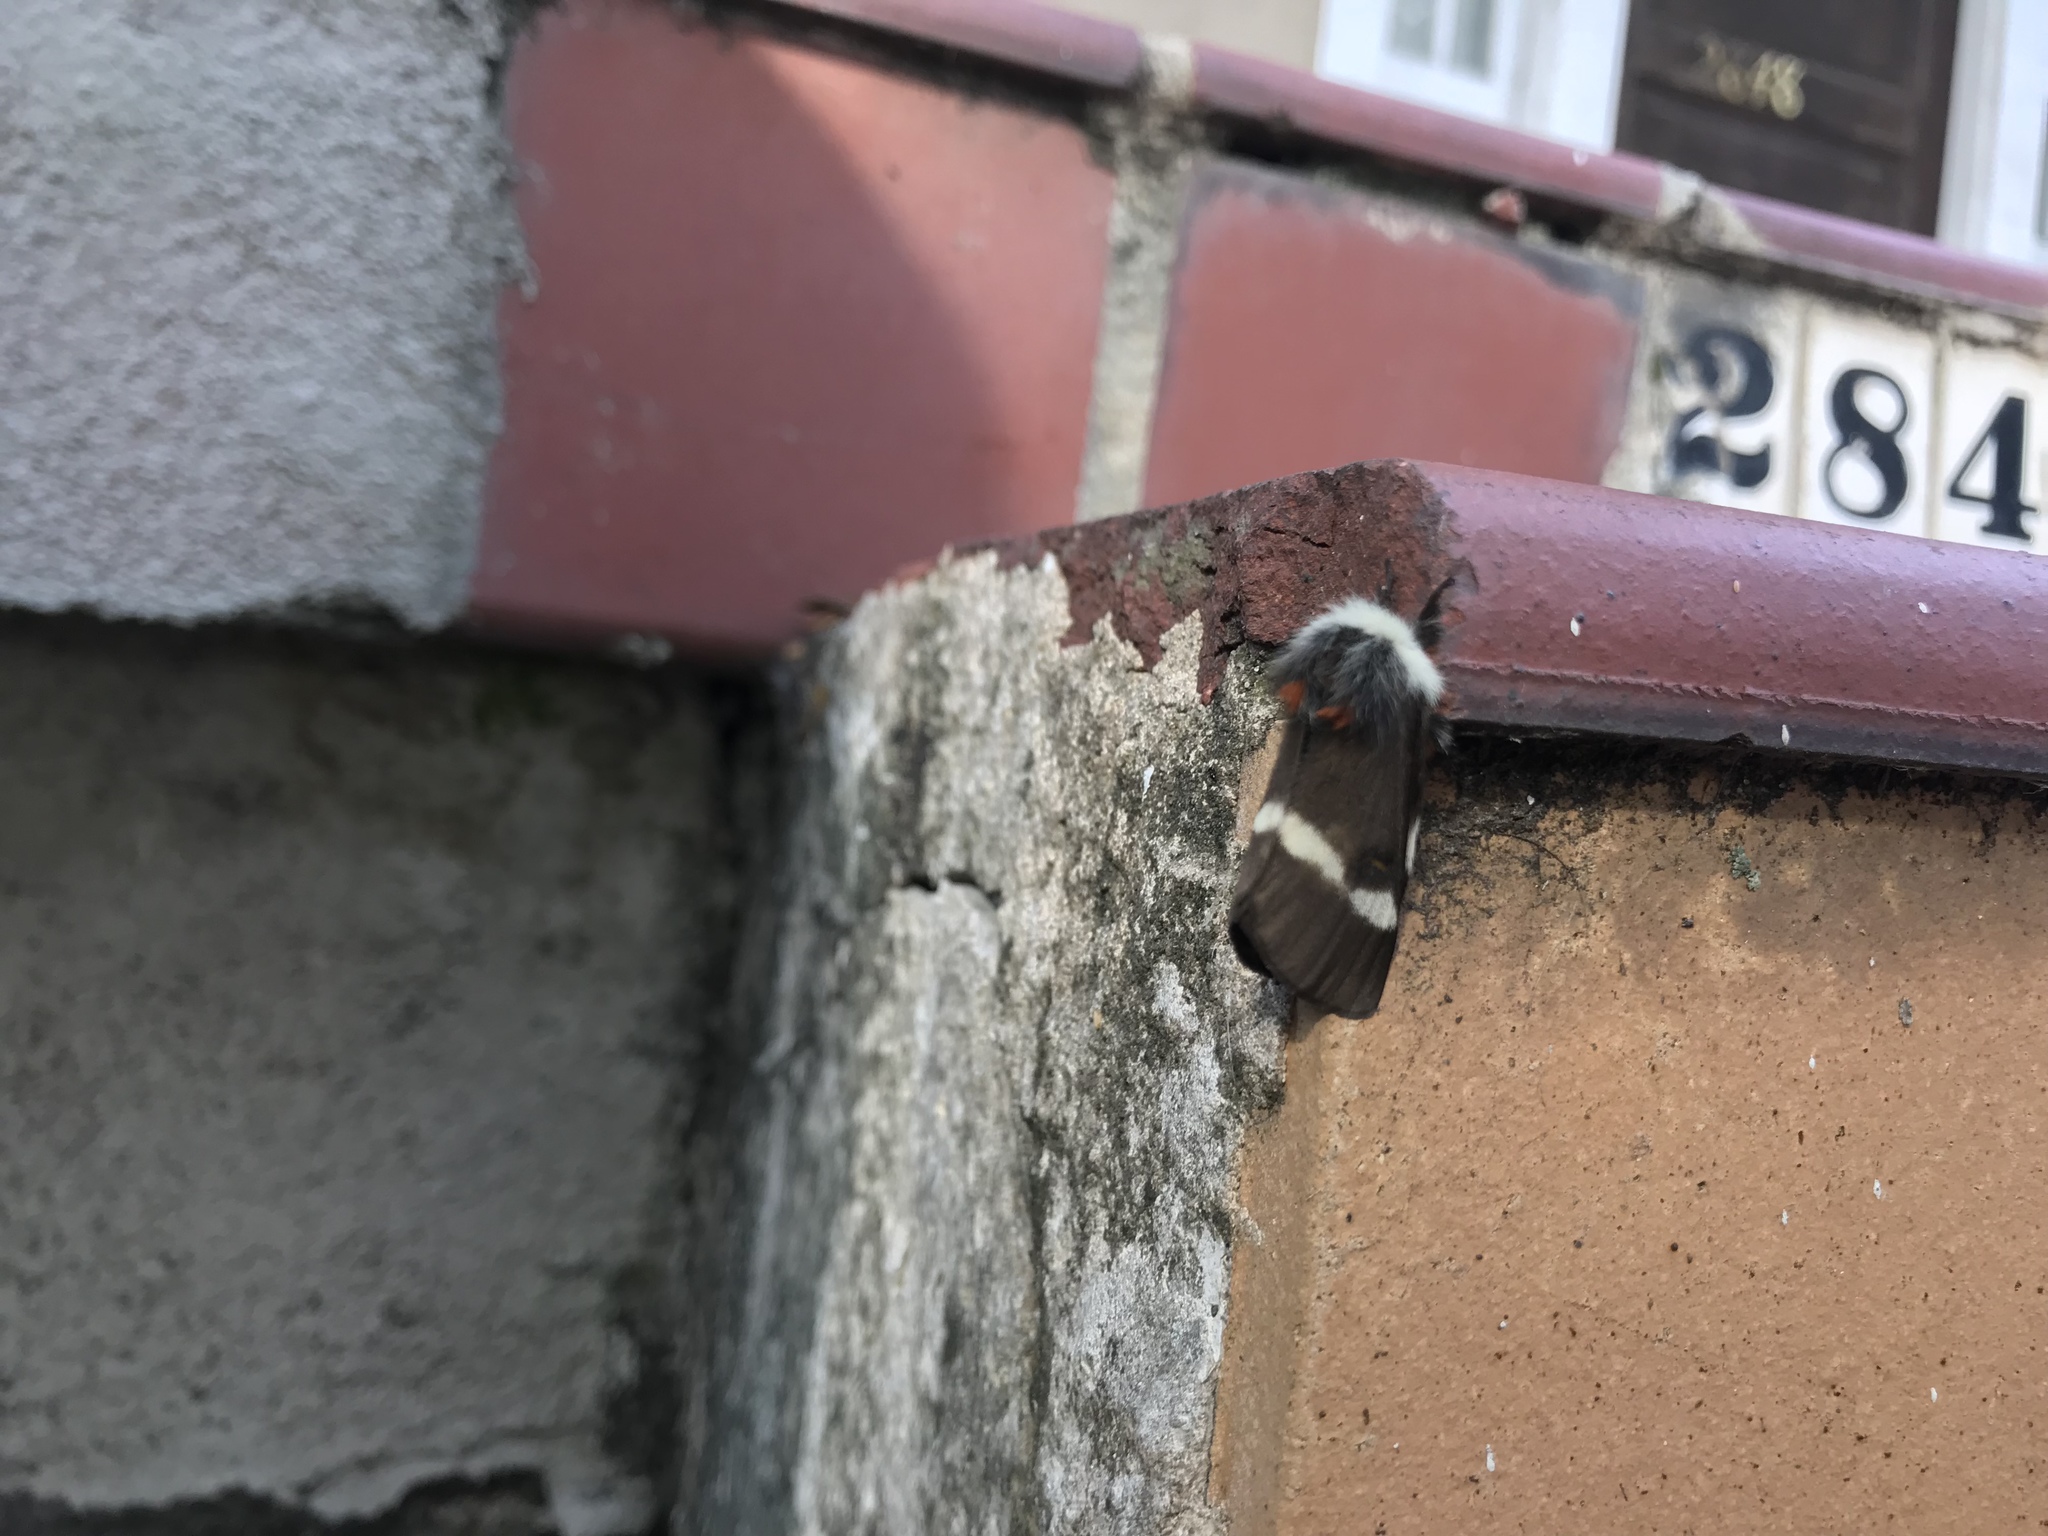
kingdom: Animalia
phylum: Arthropoda
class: Insecta
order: Lepidoptera
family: Saturniidae
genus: Hemileuca
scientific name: Hemileuca maia
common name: Eastern buckmoth
